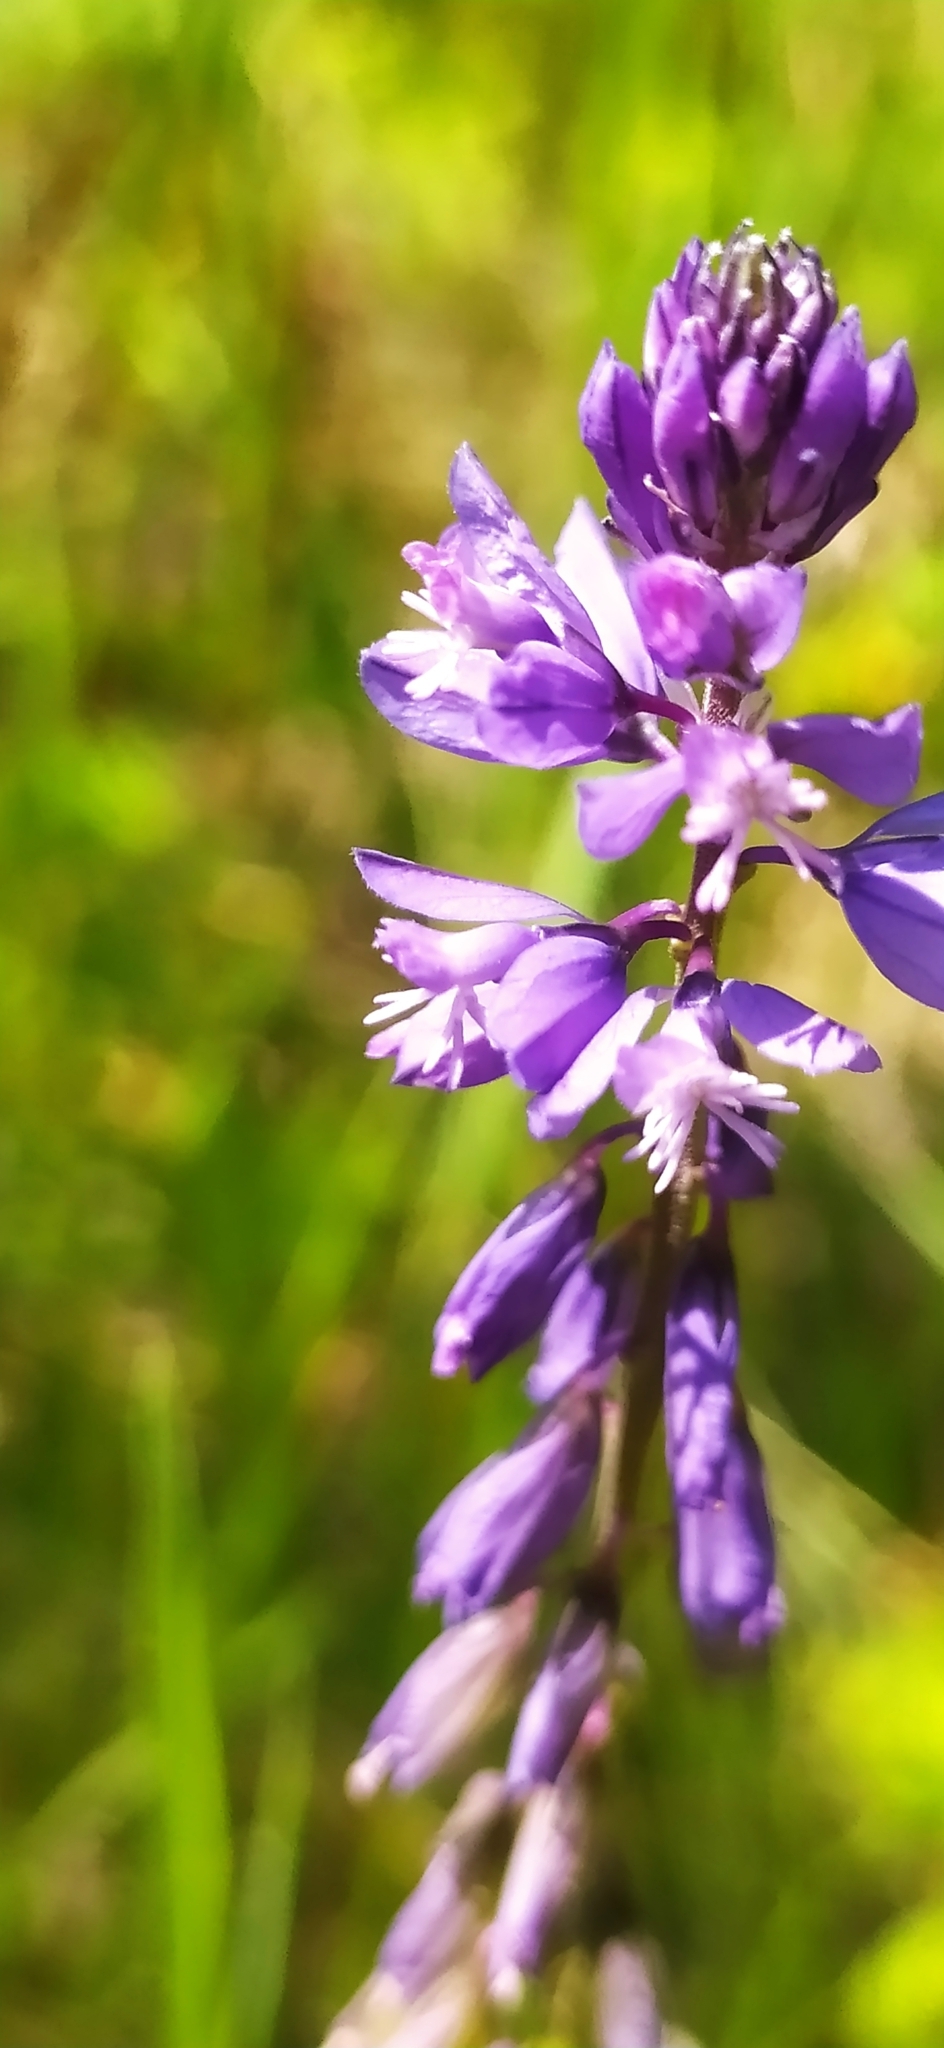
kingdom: Plantae
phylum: Tracheophyta
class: Magnoliopsida
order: Fabales
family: Polygalaceae
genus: Polygala
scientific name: Polygala comosa
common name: Tufted milkwort
